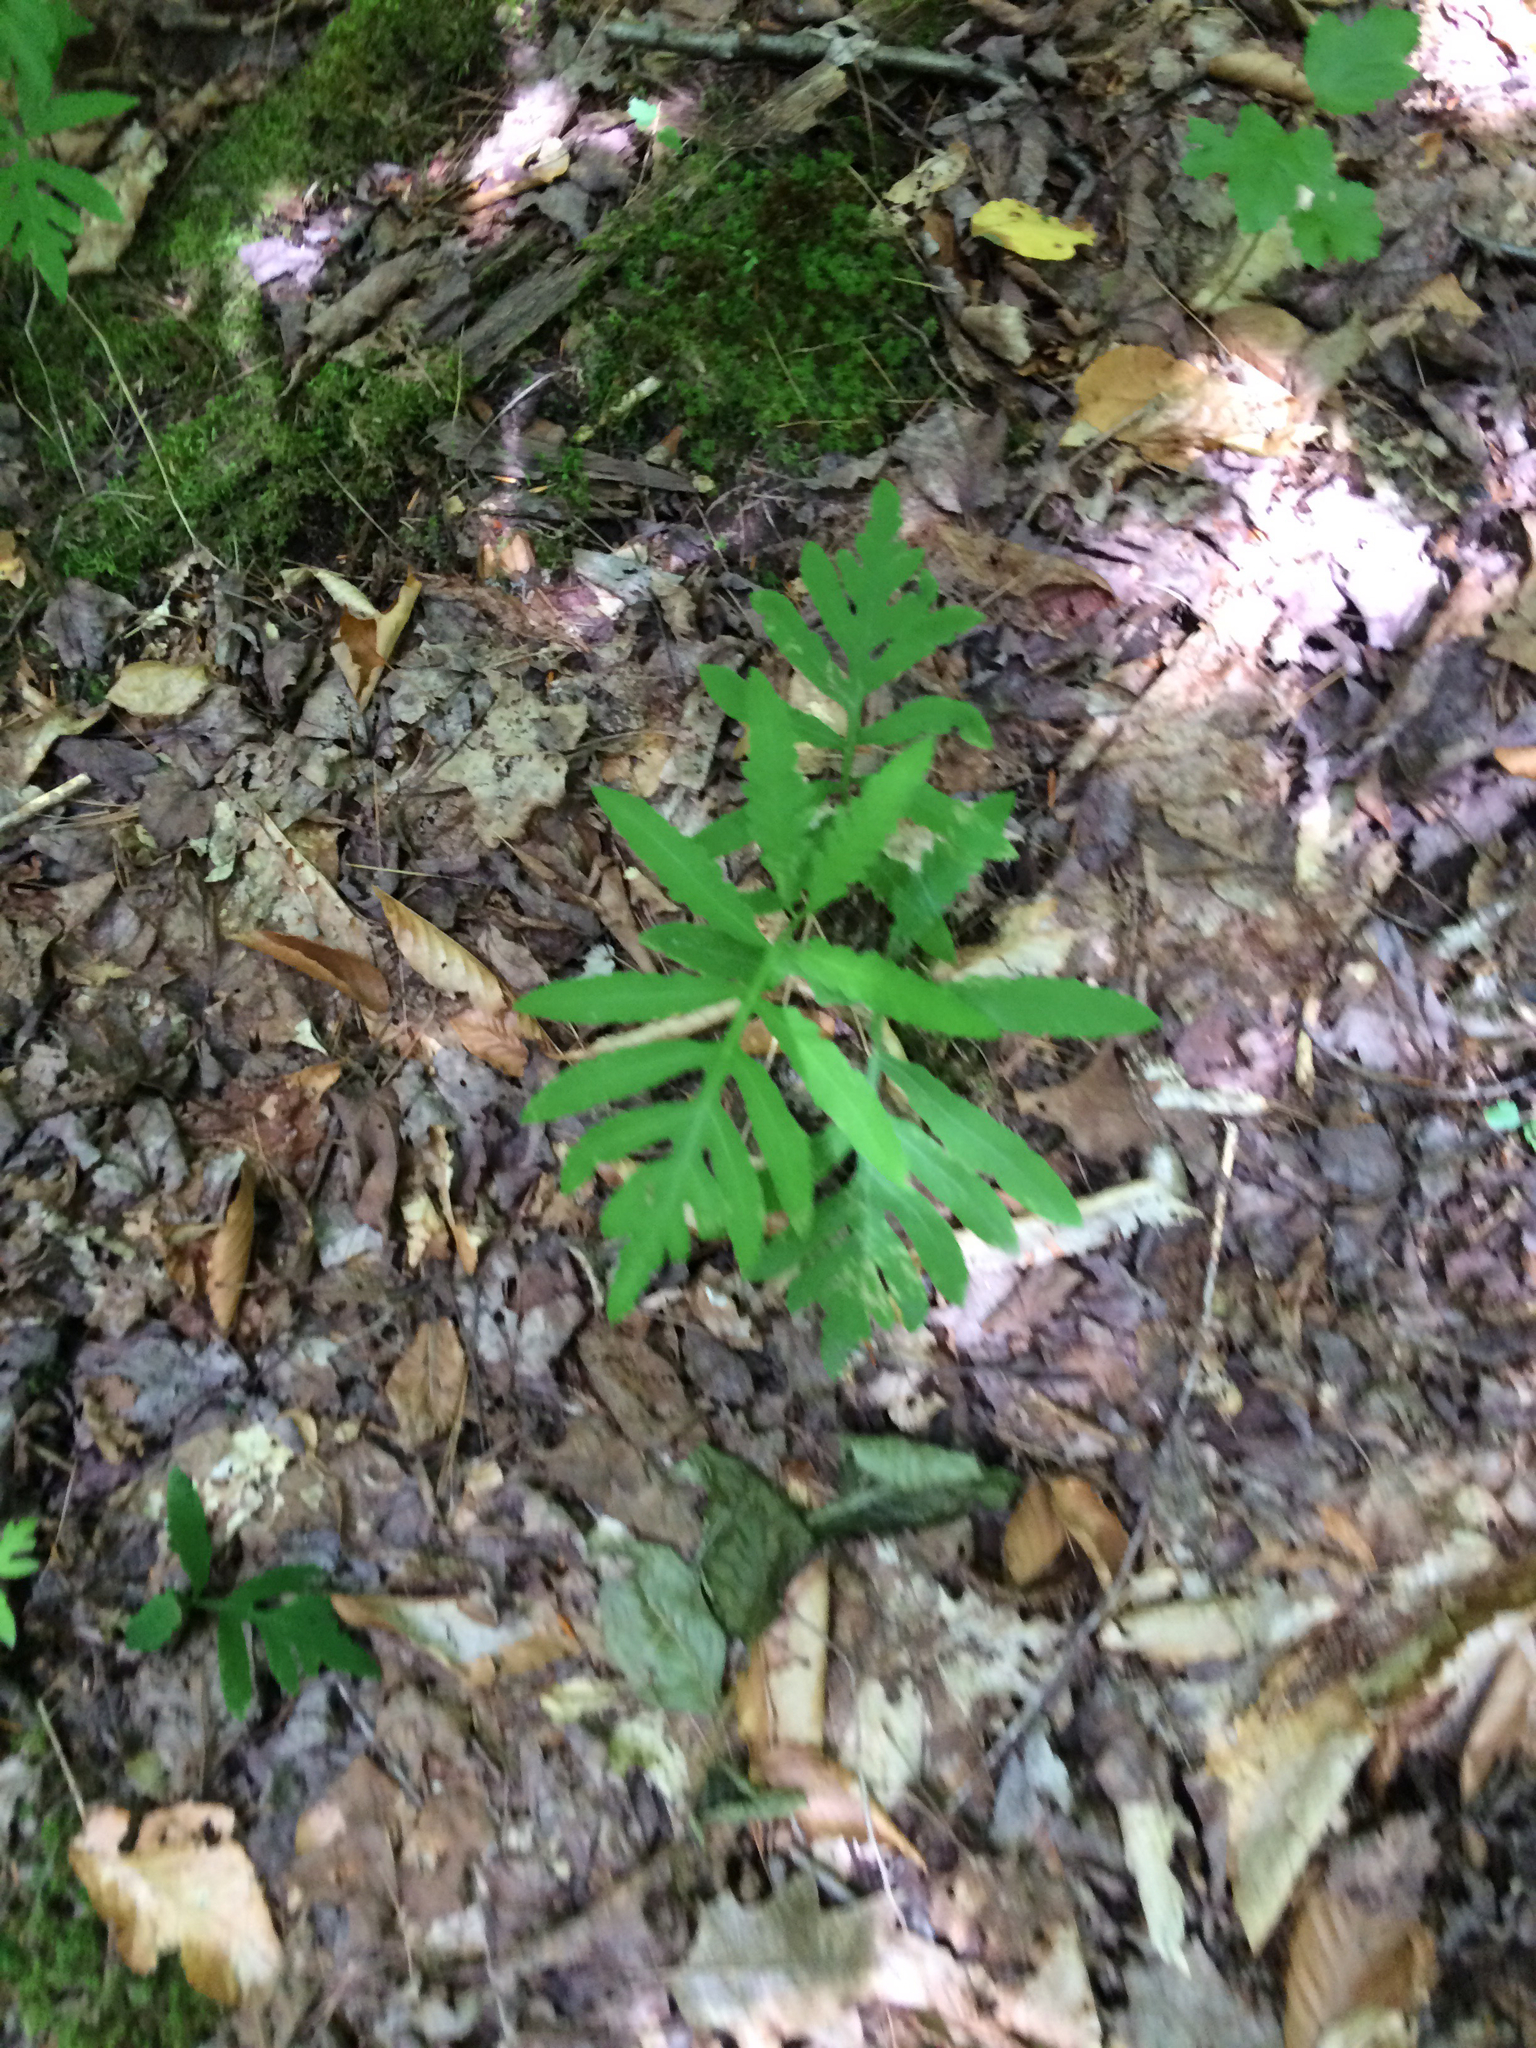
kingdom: Plantae
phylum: Tracheophyta
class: Polypodiopsida
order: Polypodiales
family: Onocleaceae
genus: Onoclea
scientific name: Onoclea sensibilis
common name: Sensitive fern
